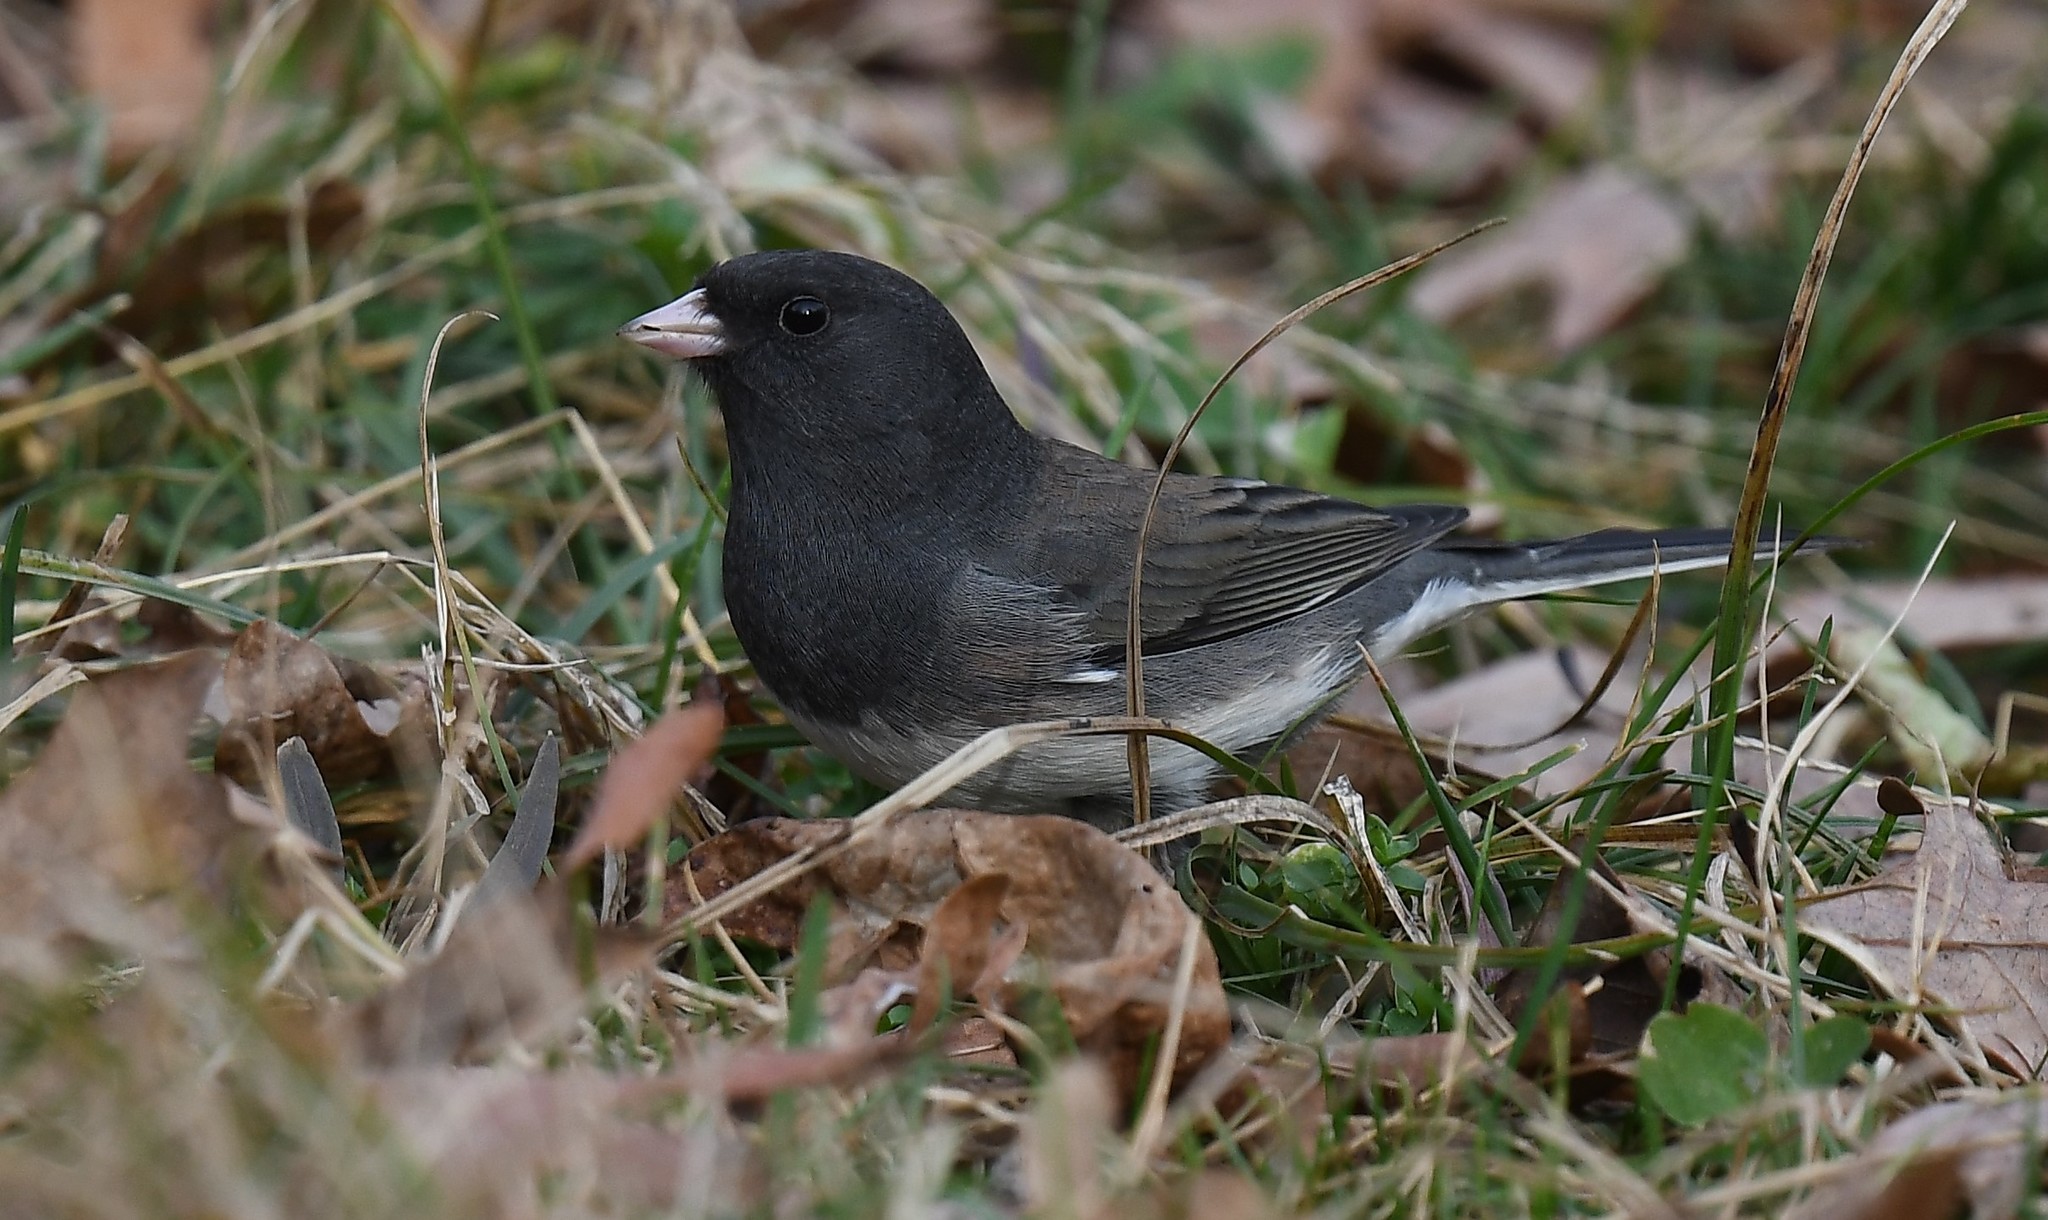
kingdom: Animalia
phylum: Chordata
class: Aves
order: Passeriformes
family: Passerellidae
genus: Junco
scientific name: Junco hyemalis
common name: Dark-eyed junco
